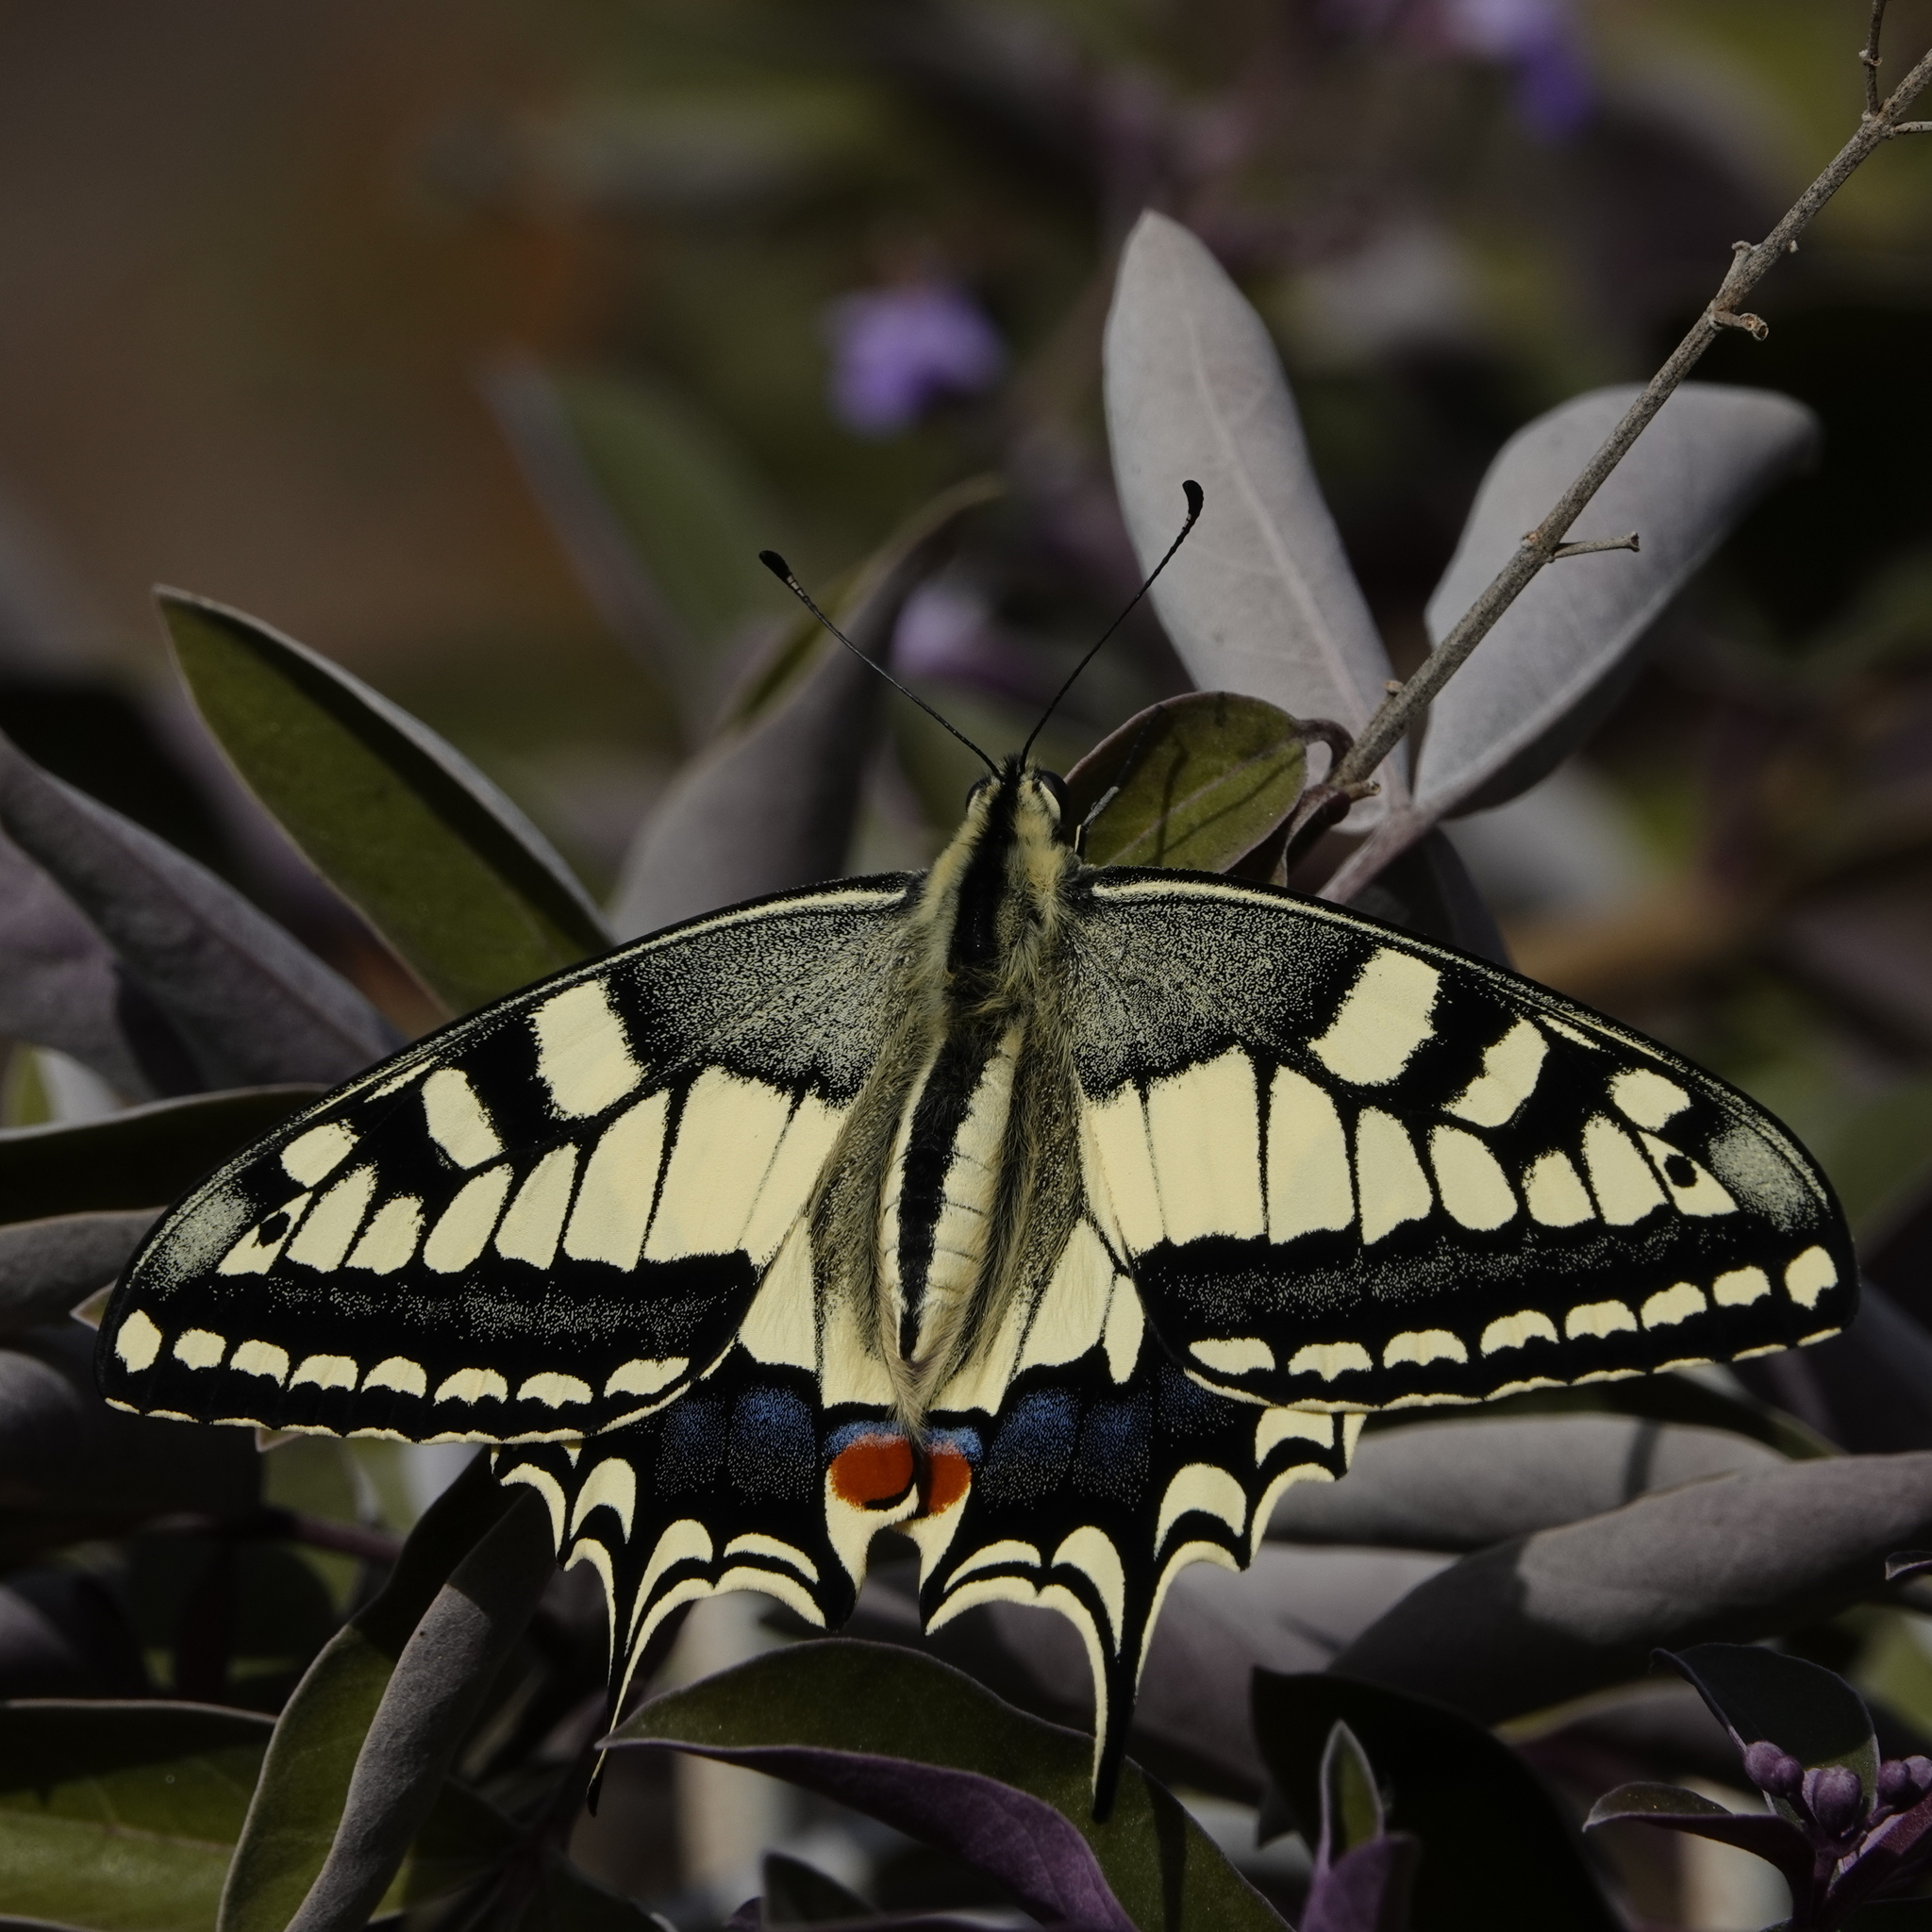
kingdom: Animalia
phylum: Arthropoda
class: Insecta
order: Lepidoptera
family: Papilionidae
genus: Papilio
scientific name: Papilio machaon
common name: Swallowtail
